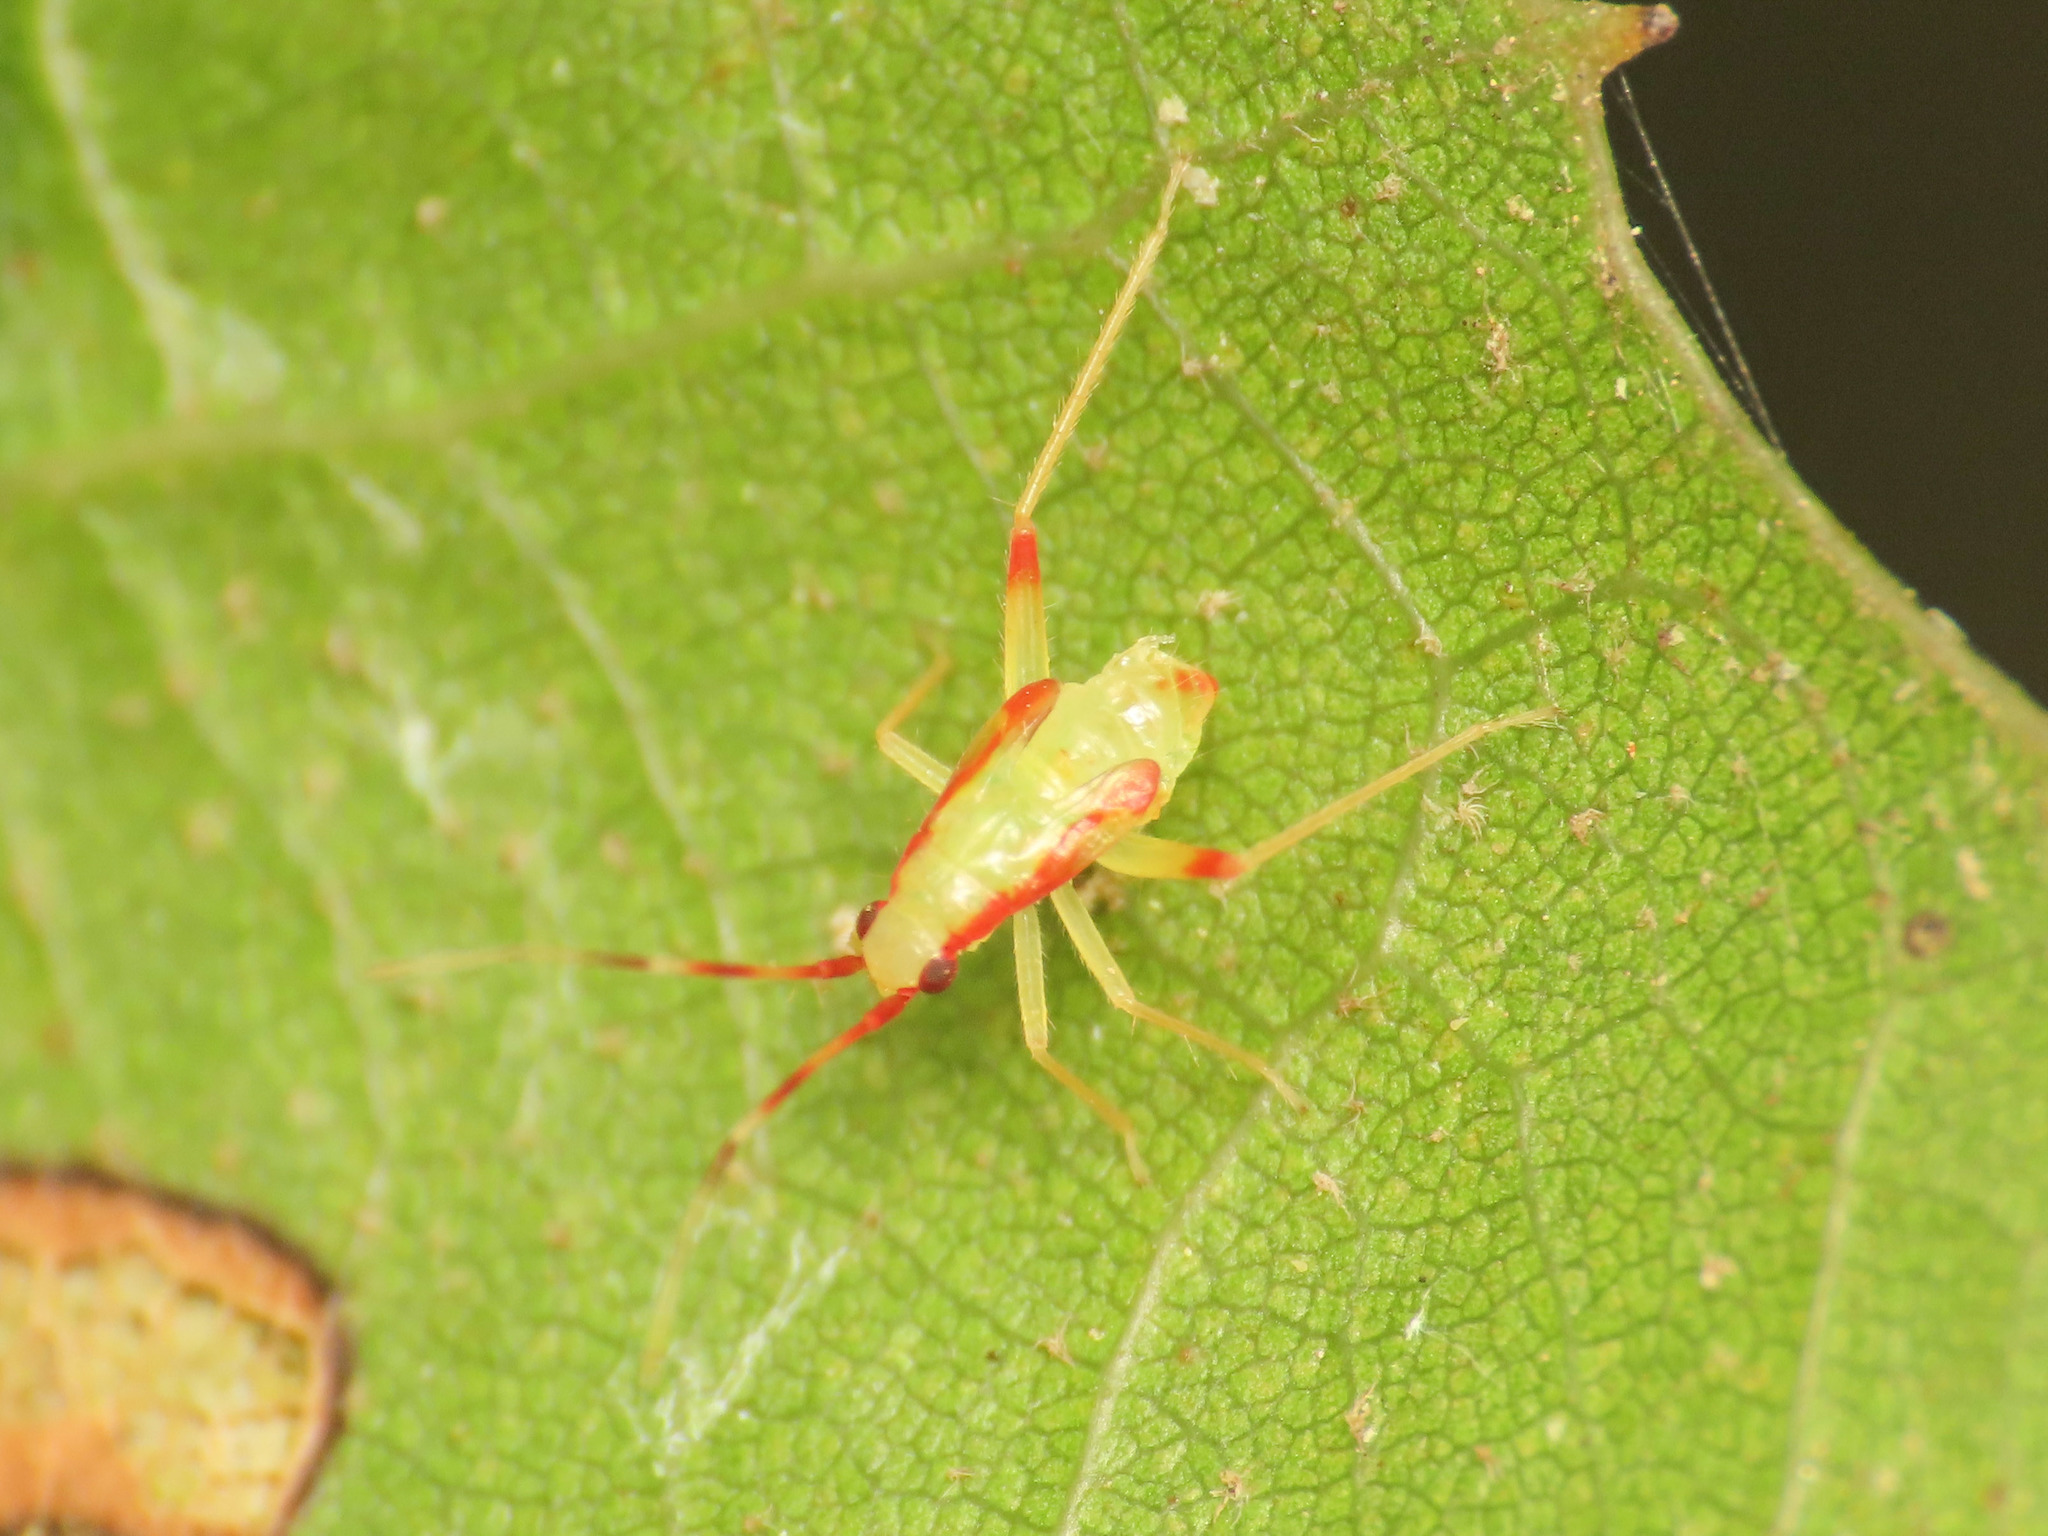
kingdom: Animalia
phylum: Arthropoda
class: Insecta
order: Hemiptera
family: Miridae
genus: Campyloneura
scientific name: Campyloneura virgula
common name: Predatory bug
